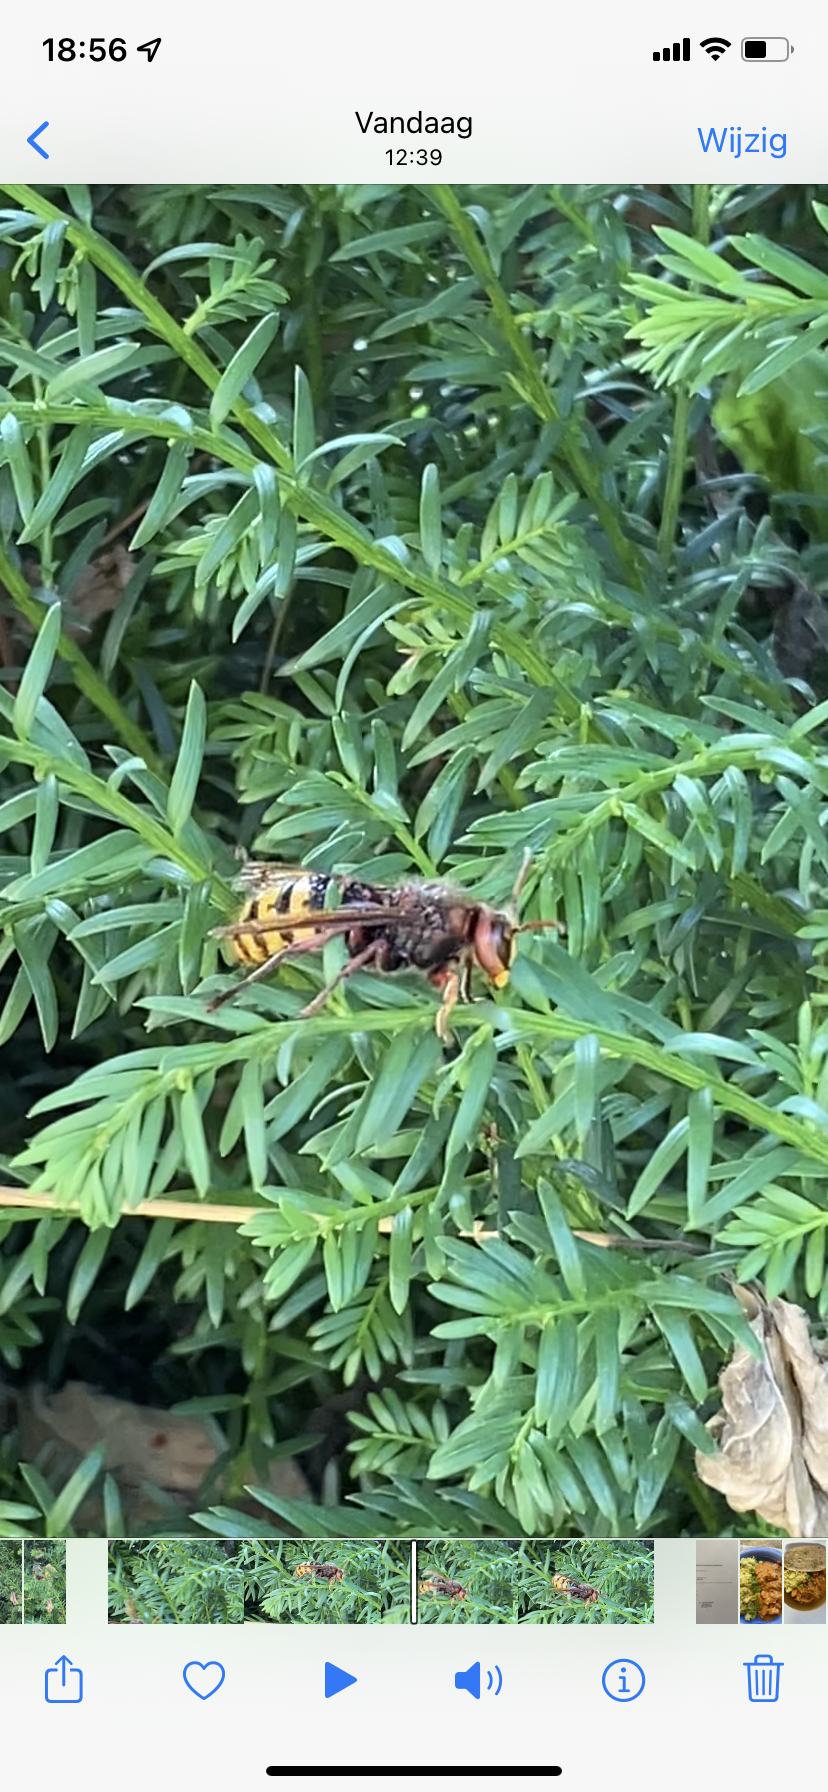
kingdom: Animalia
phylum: Arthropoda
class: Insecta
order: Hymenoptera
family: Vespidae
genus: Vespa
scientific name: Vespa crabro
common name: Hornet
